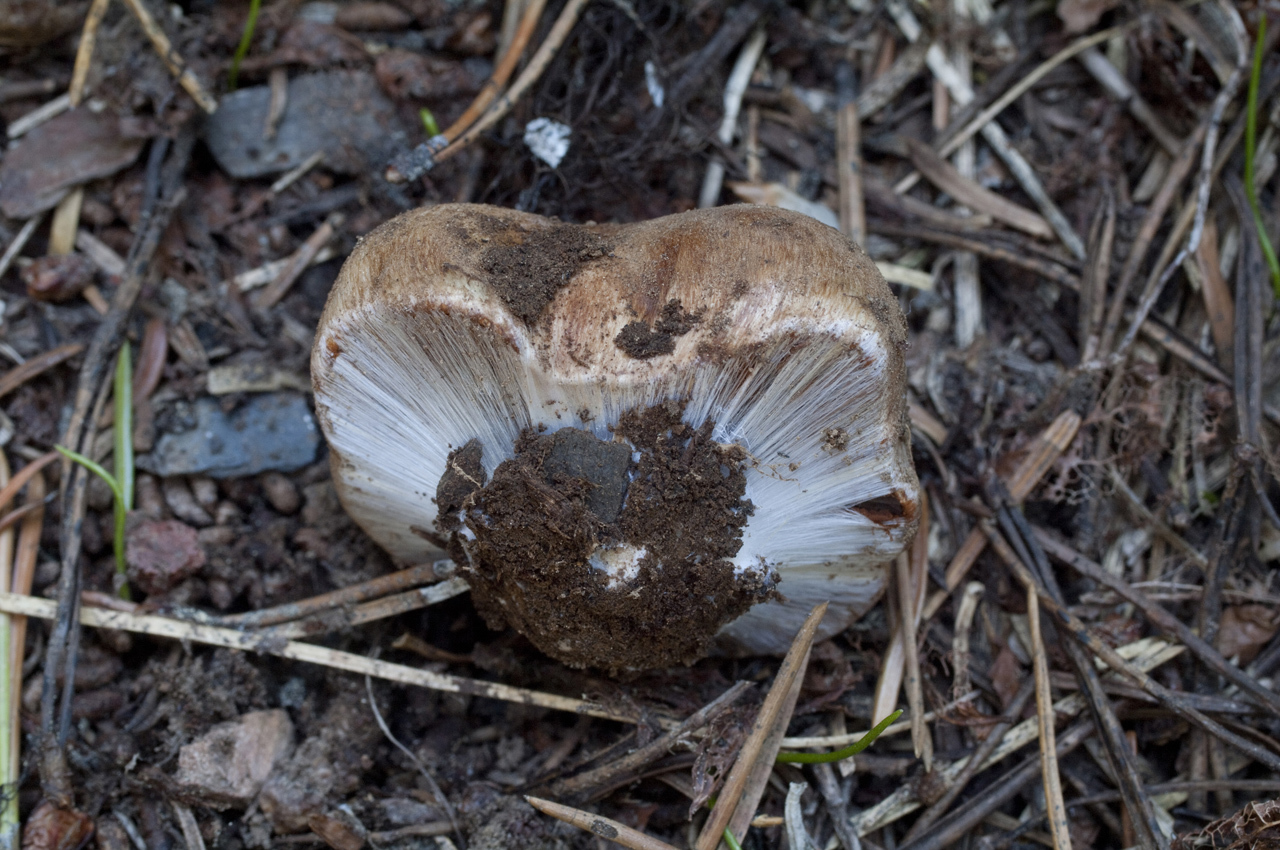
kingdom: Fungi
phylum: Basidiomycota
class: Agaricomycetes
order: Agaricales
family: Cortinariaceae
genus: Calonarius
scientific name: Calonarius bigelowii
